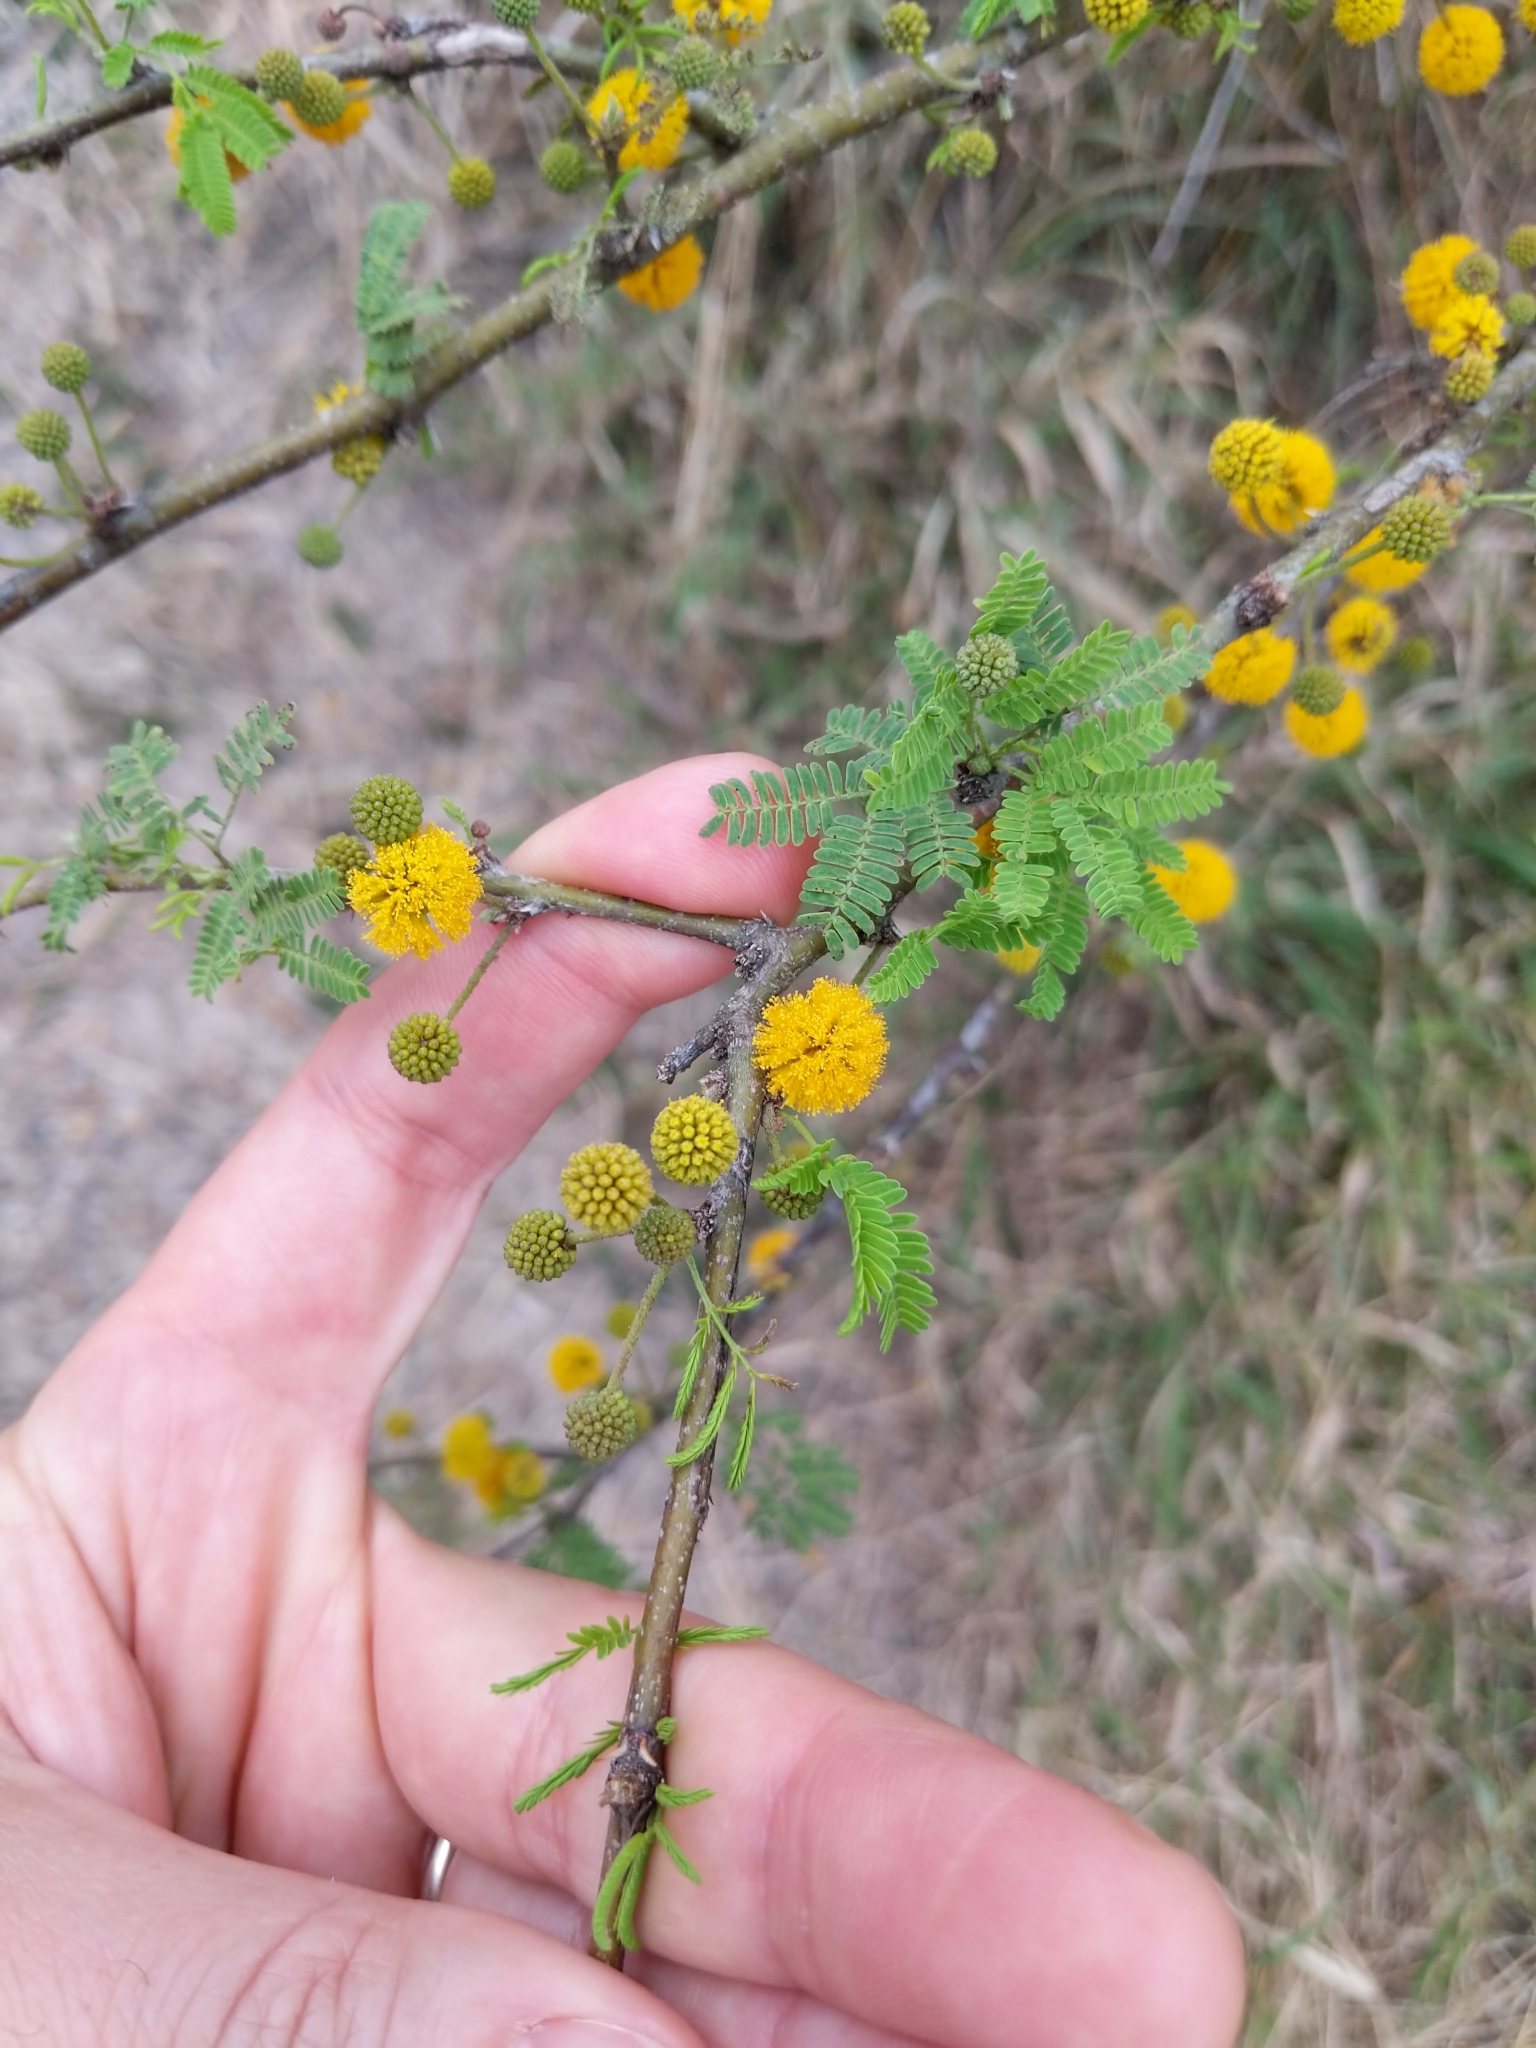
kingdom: Plantae
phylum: Tracheophyta
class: Magnoliopsida
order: Fabales
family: Fabaceae
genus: Vachellia
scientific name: Vachellia farnesiana
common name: Sweet acacia
